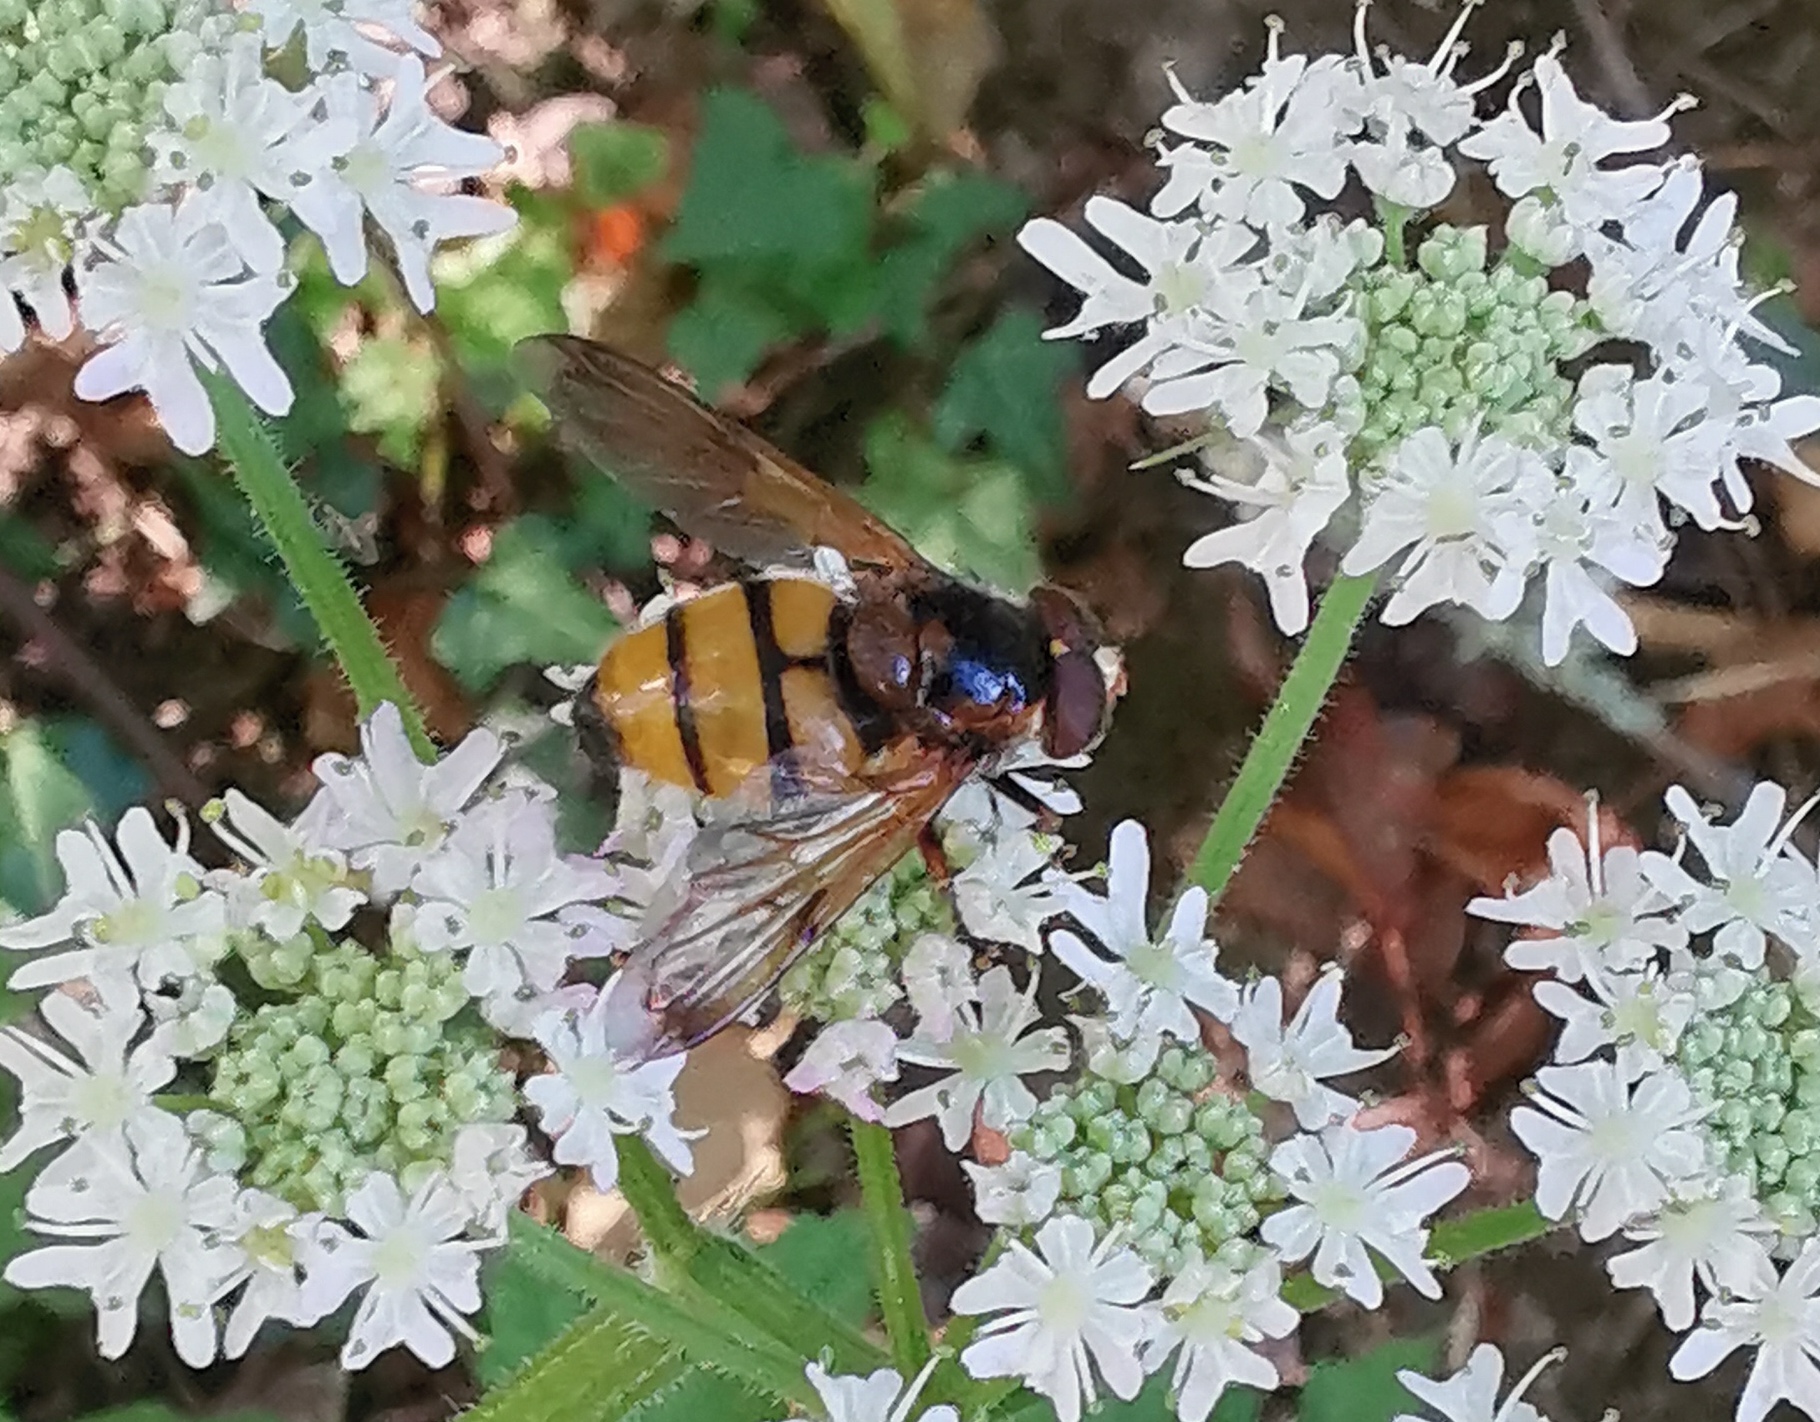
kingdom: Animalia
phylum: Arthropoda
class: Insecta
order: Diptera
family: Syrphidae
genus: Volucella
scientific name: Volucella inanis
